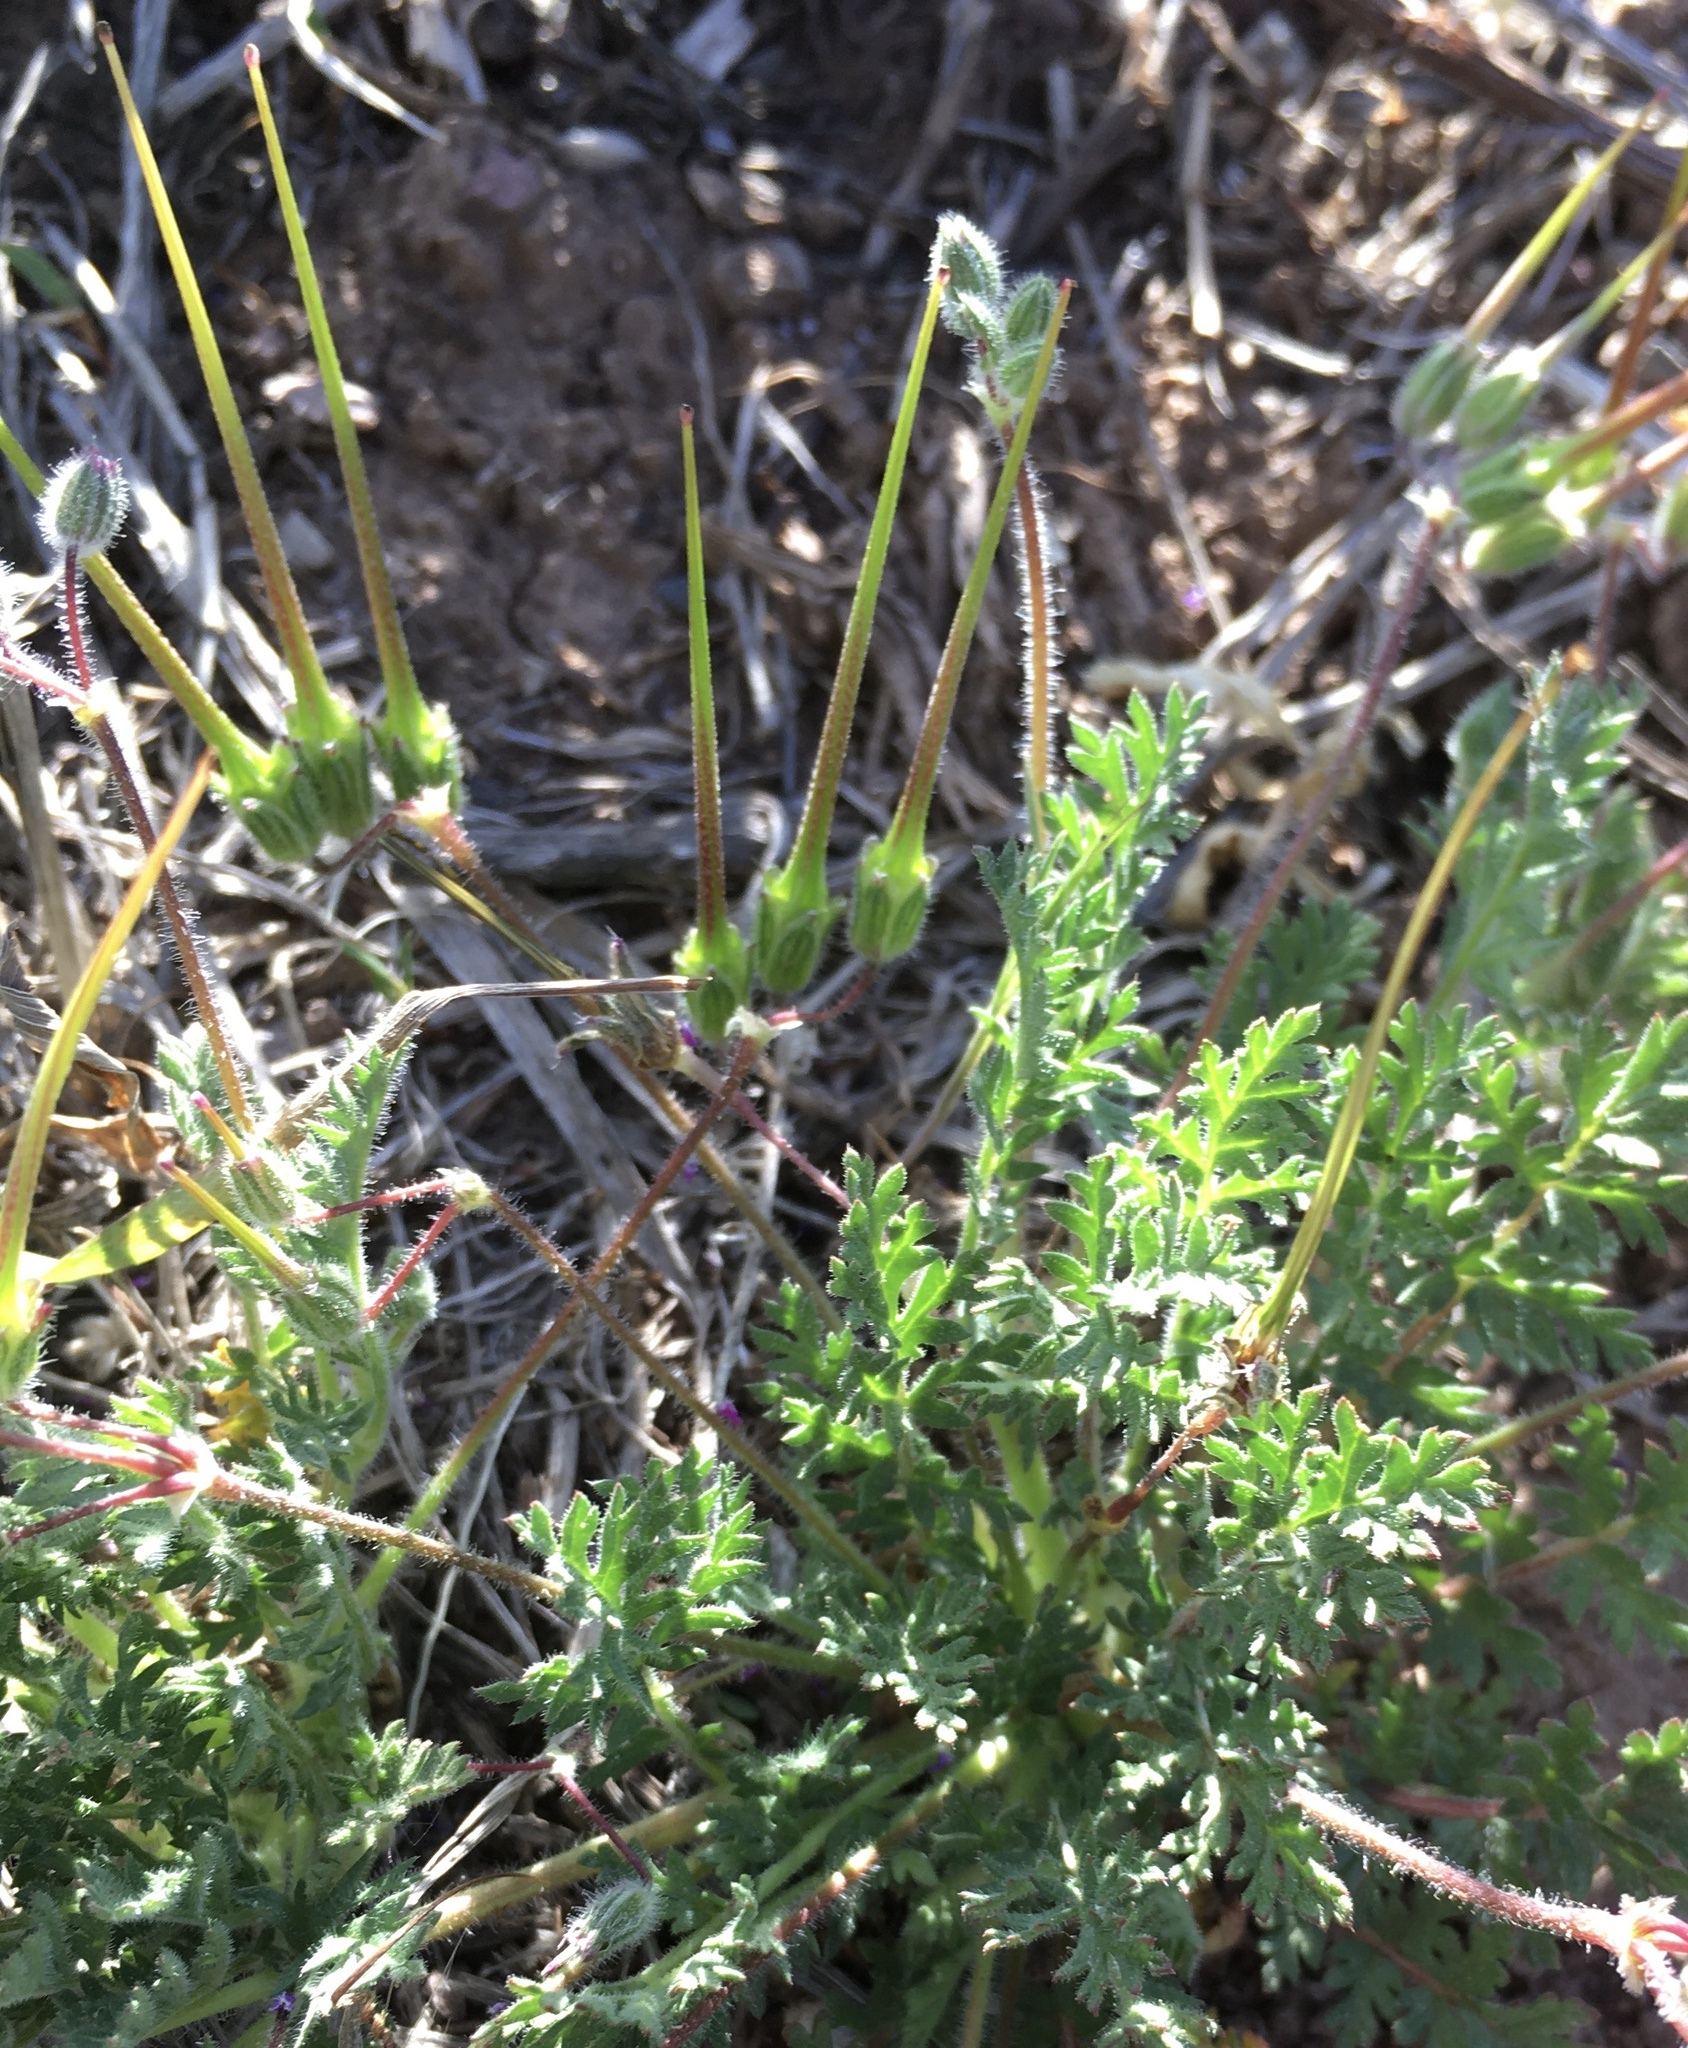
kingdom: Plantae
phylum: Tracheophyta
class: Magnoliopsida
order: Geraniales
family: Geraniaceae
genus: Erodium
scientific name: Erodium cicutarium
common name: Common stork's-bill
